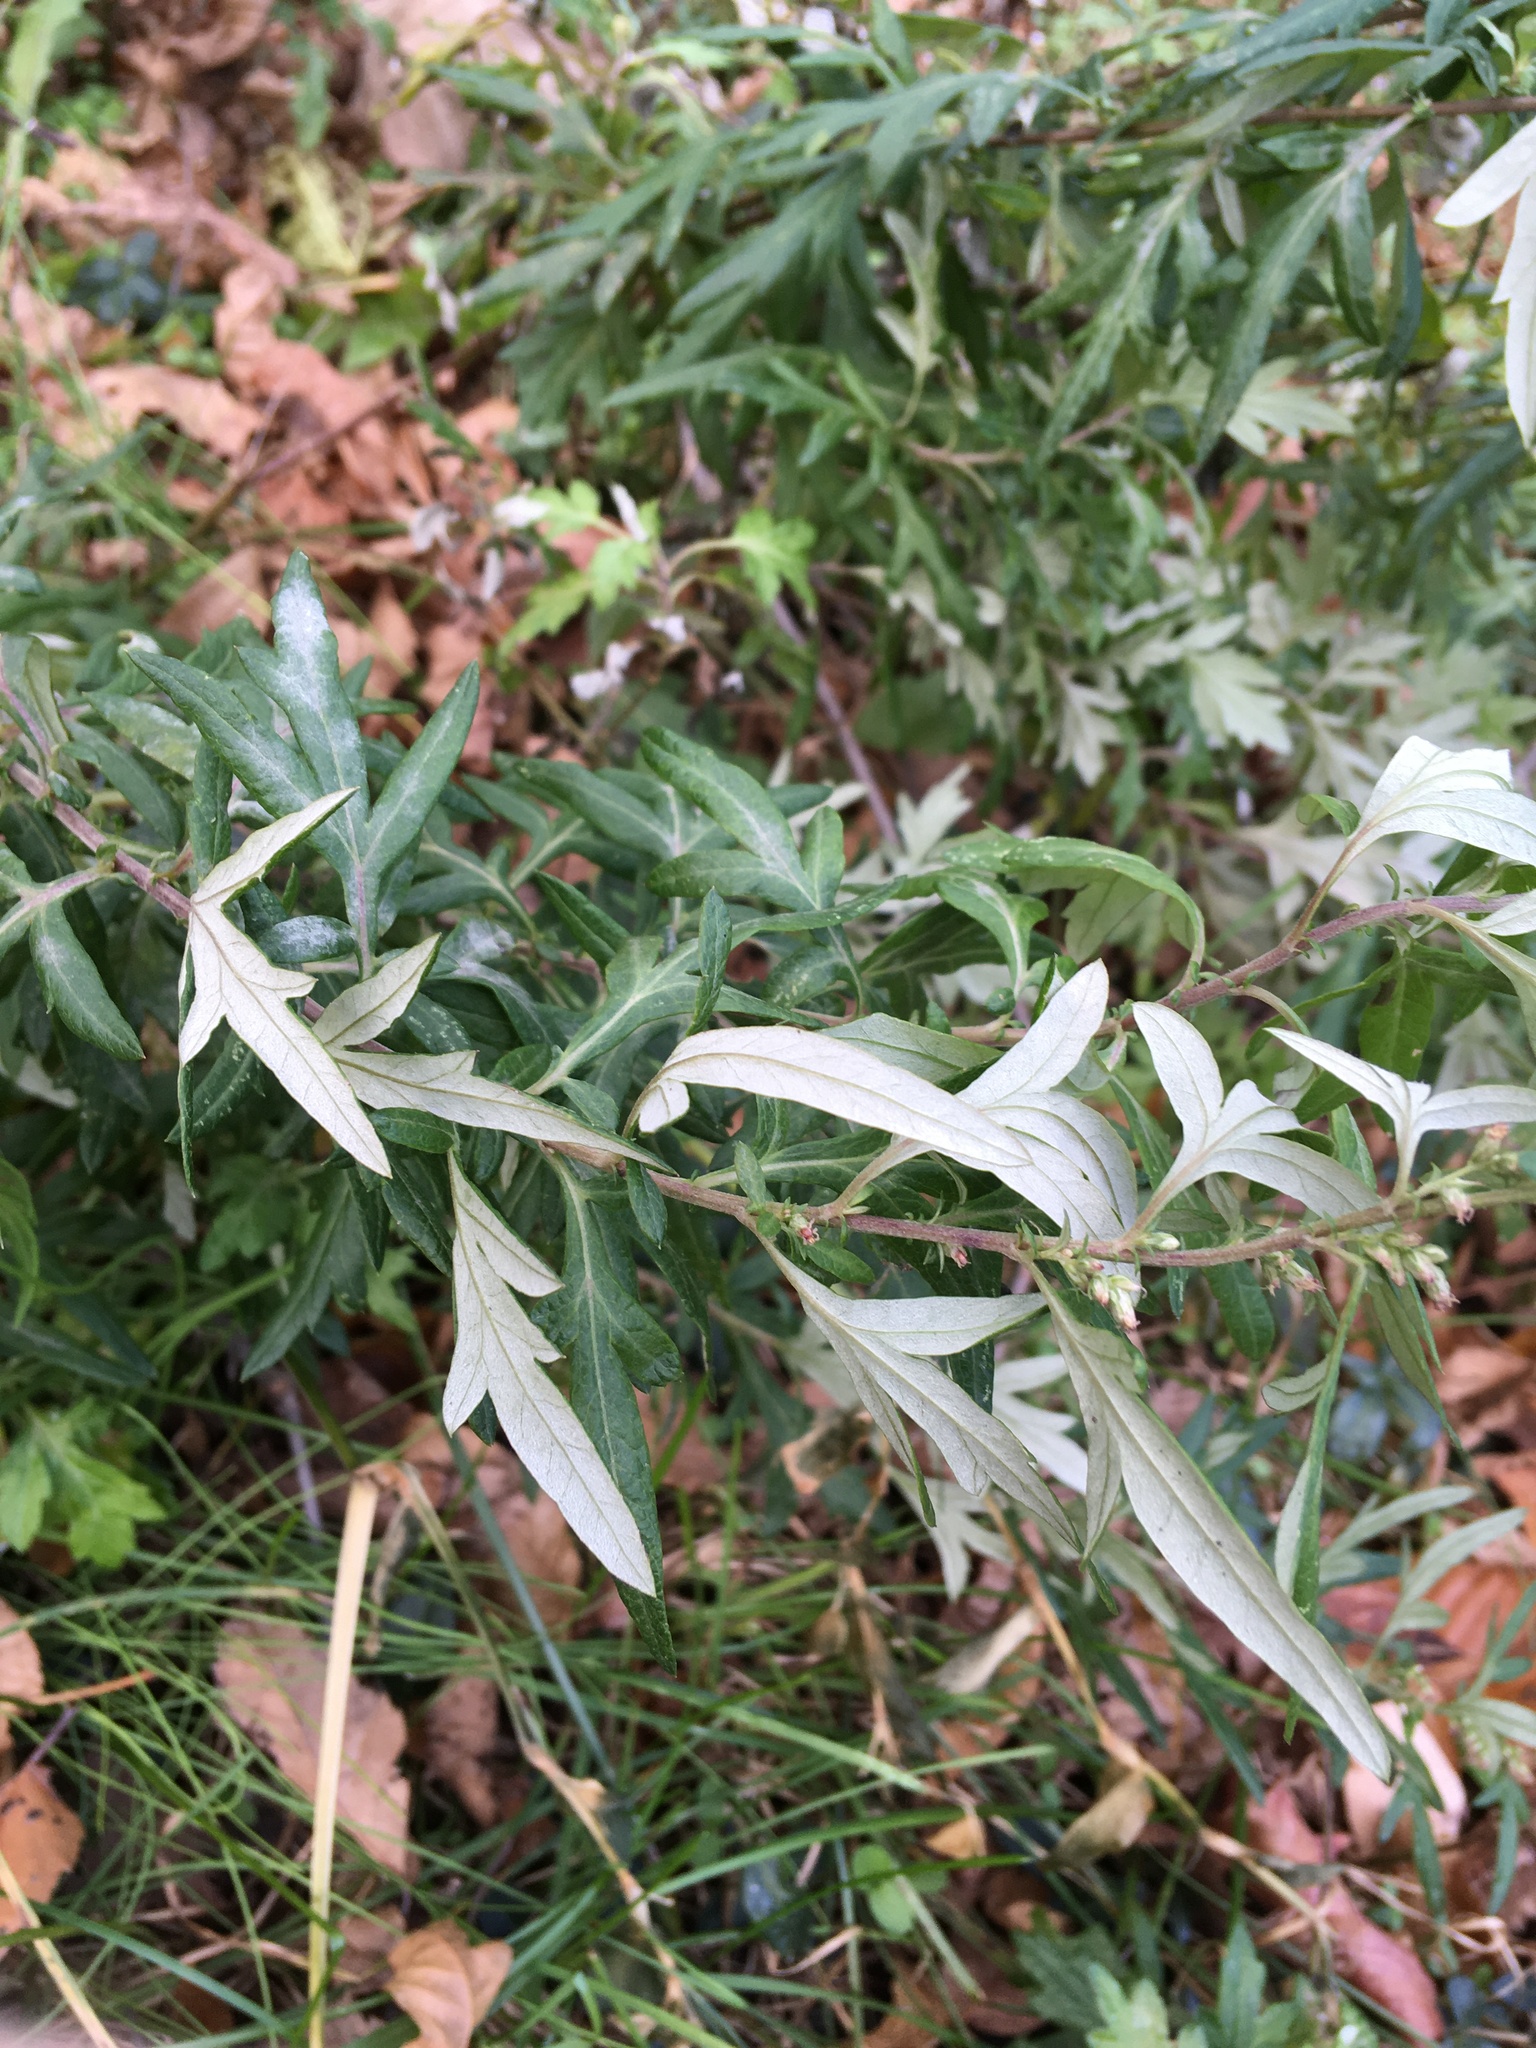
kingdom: Plantae
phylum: Tracheophyta
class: Magnoliopsida
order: Asterales
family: Asteraceae
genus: Artemisia
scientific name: Artemisia vulgaris
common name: Mugwort
